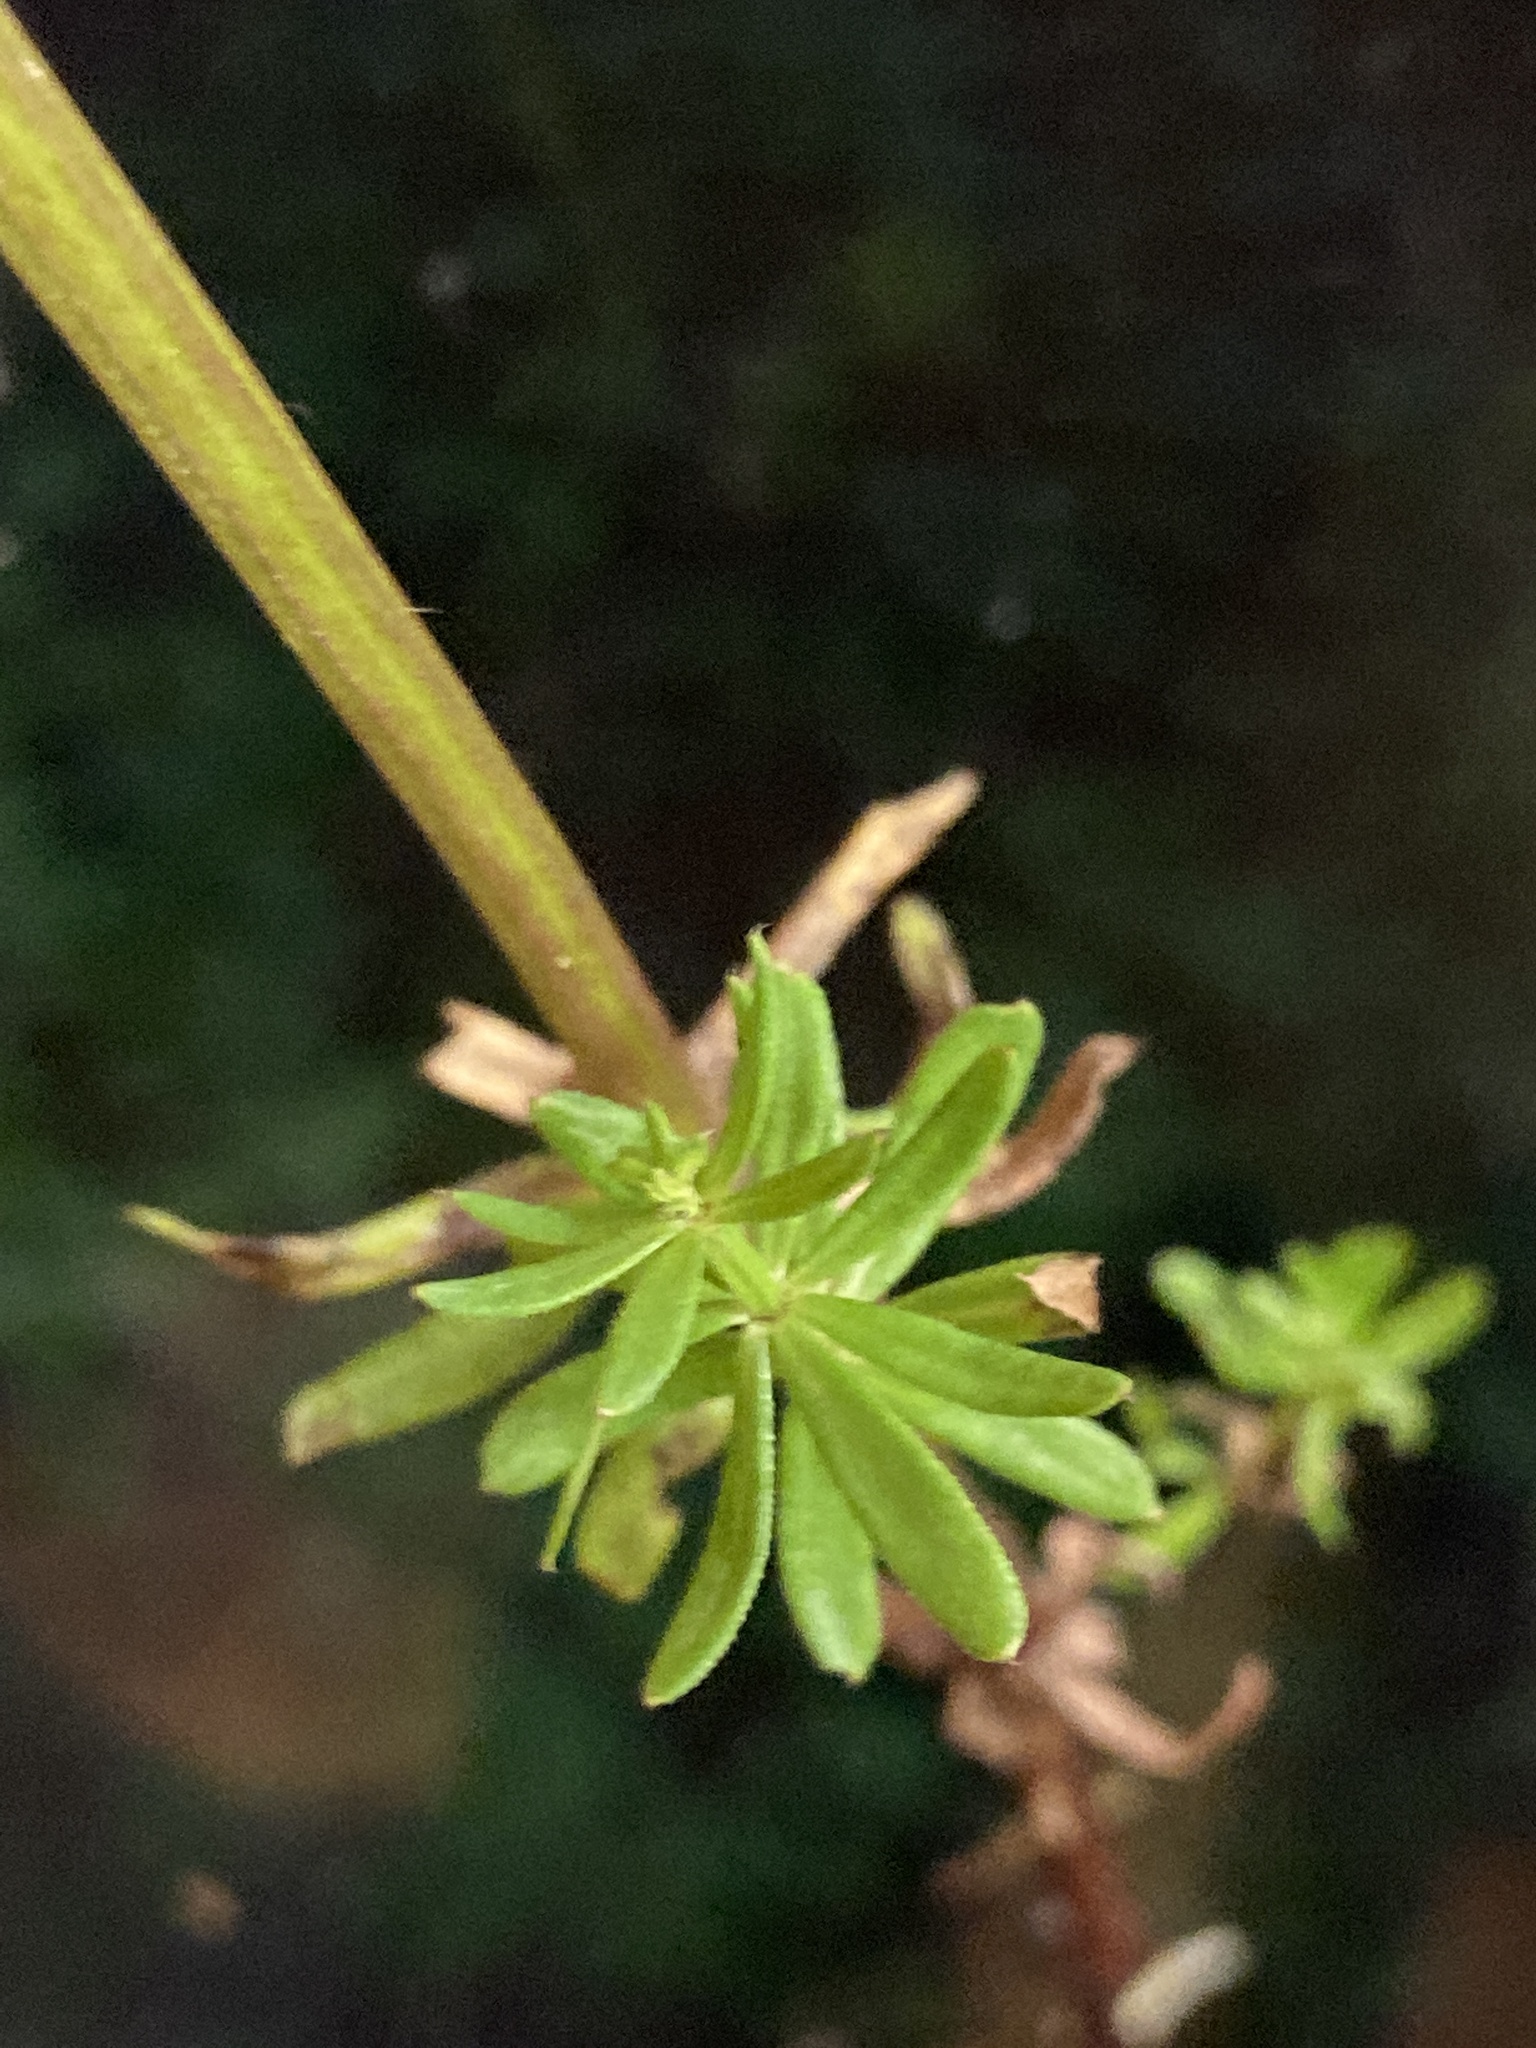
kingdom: Plantae
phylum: Tracheophyta
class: Magnoliopsida
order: Gentianales
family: Rubiaceae
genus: Galium
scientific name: Galium mollugo
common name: Hedge bedstraw
